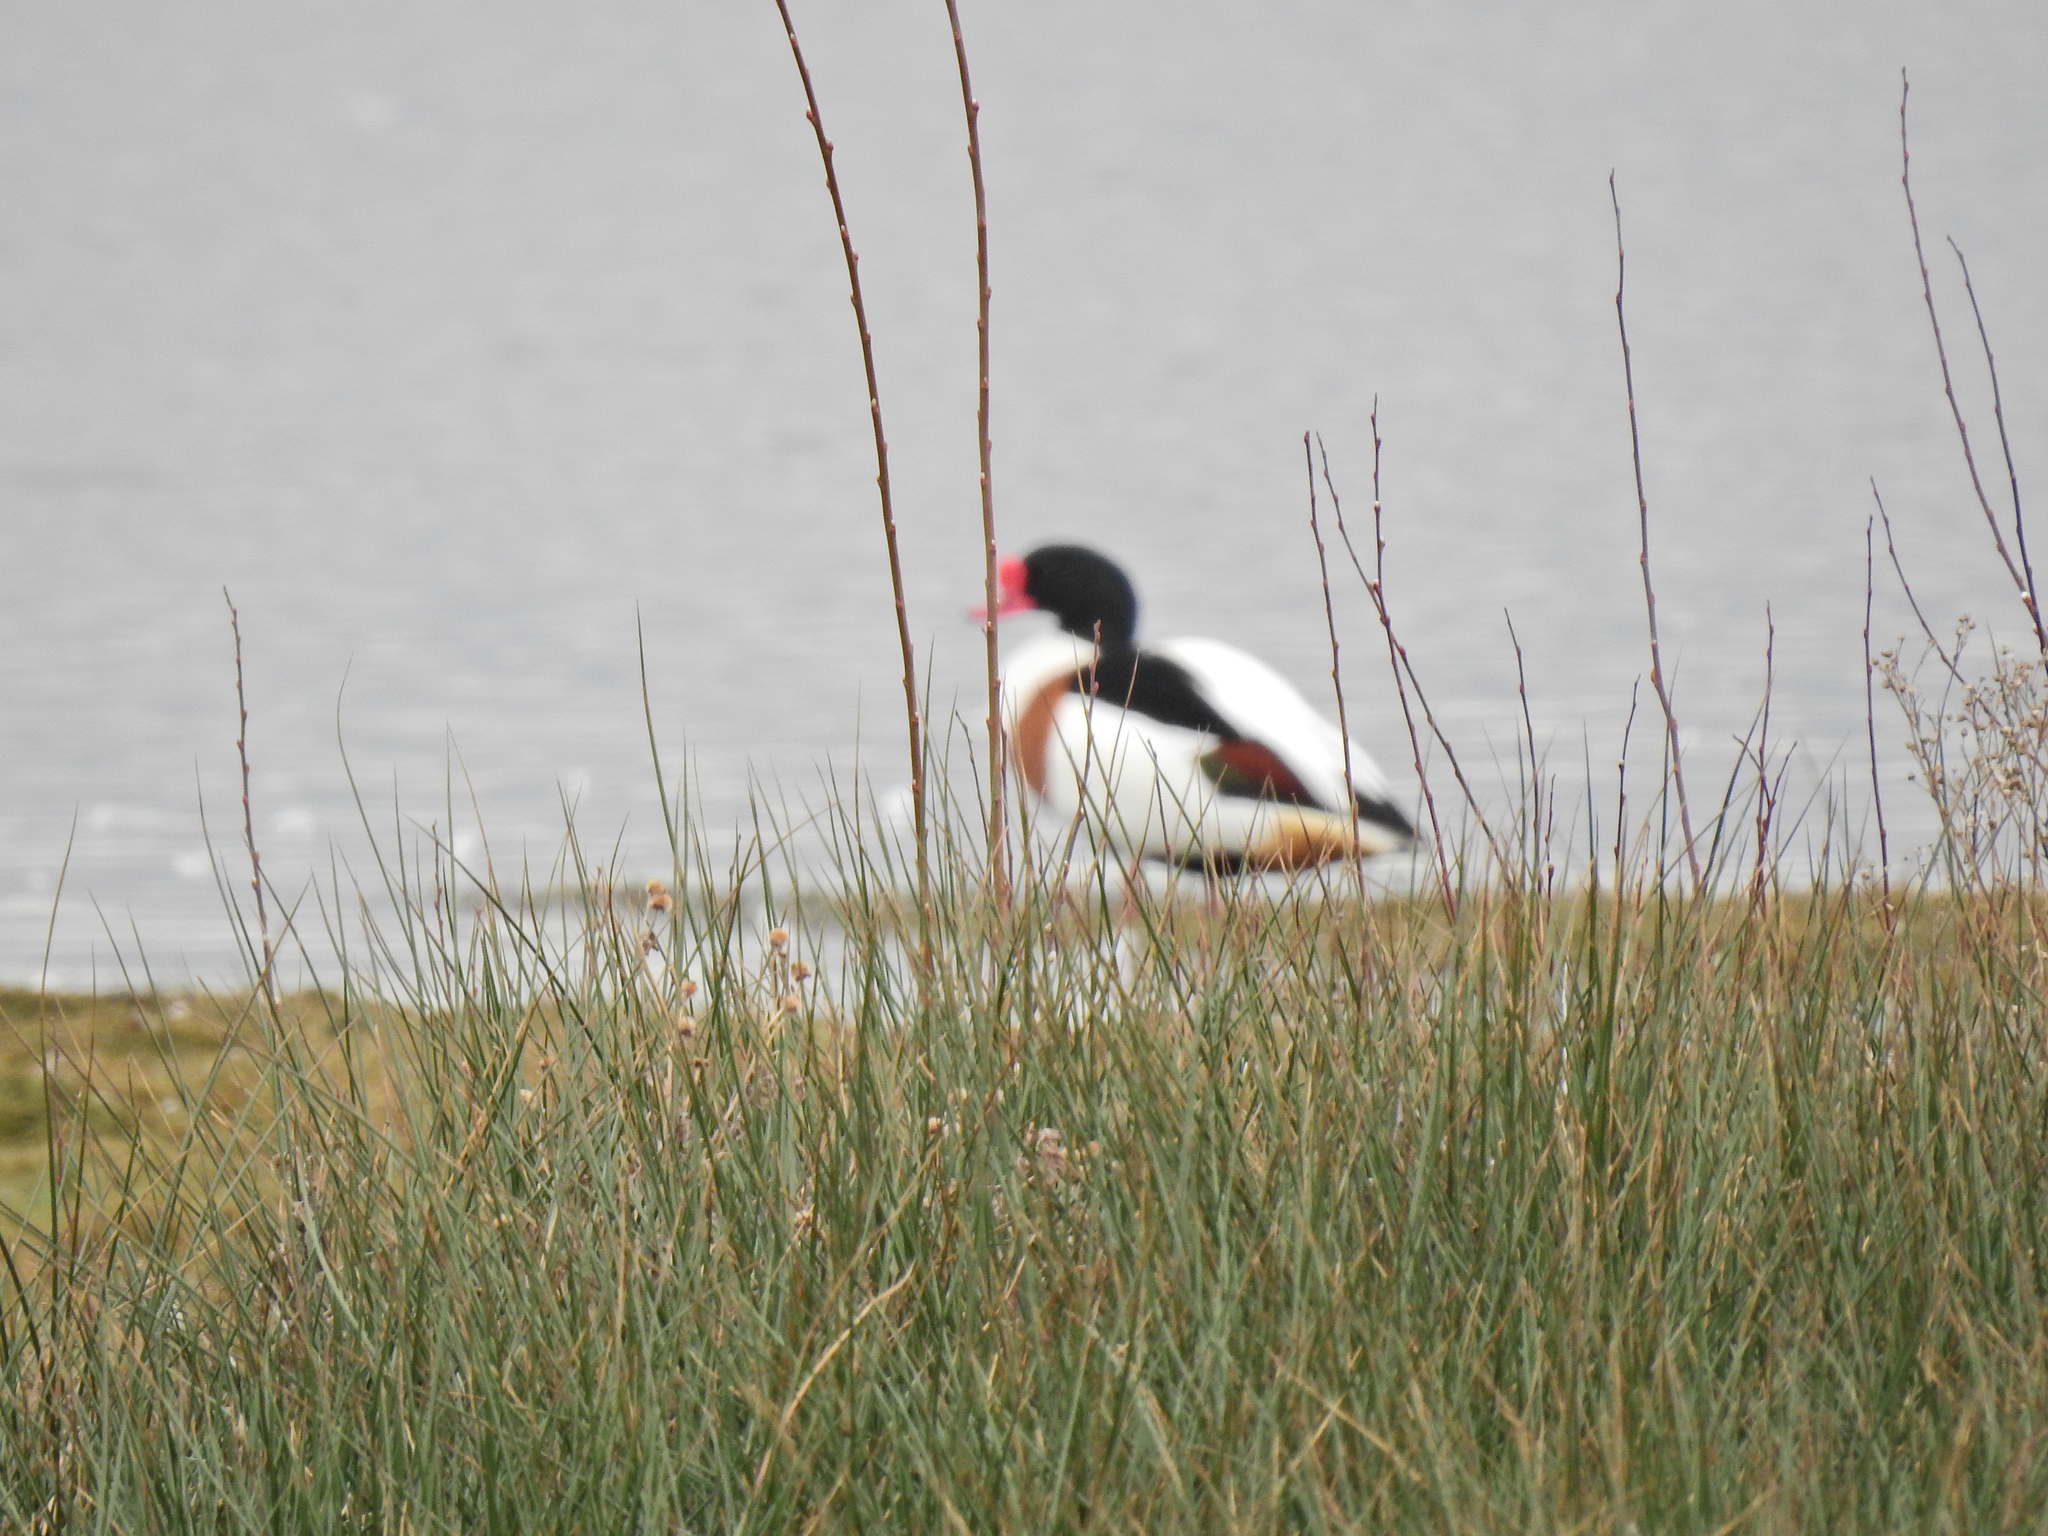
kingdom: Animalia
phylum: Chordata
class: Aves
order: Anseriformes
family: Anatidae
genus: Tadorna
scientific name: Tadorna tadorna
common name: Common shelduck
